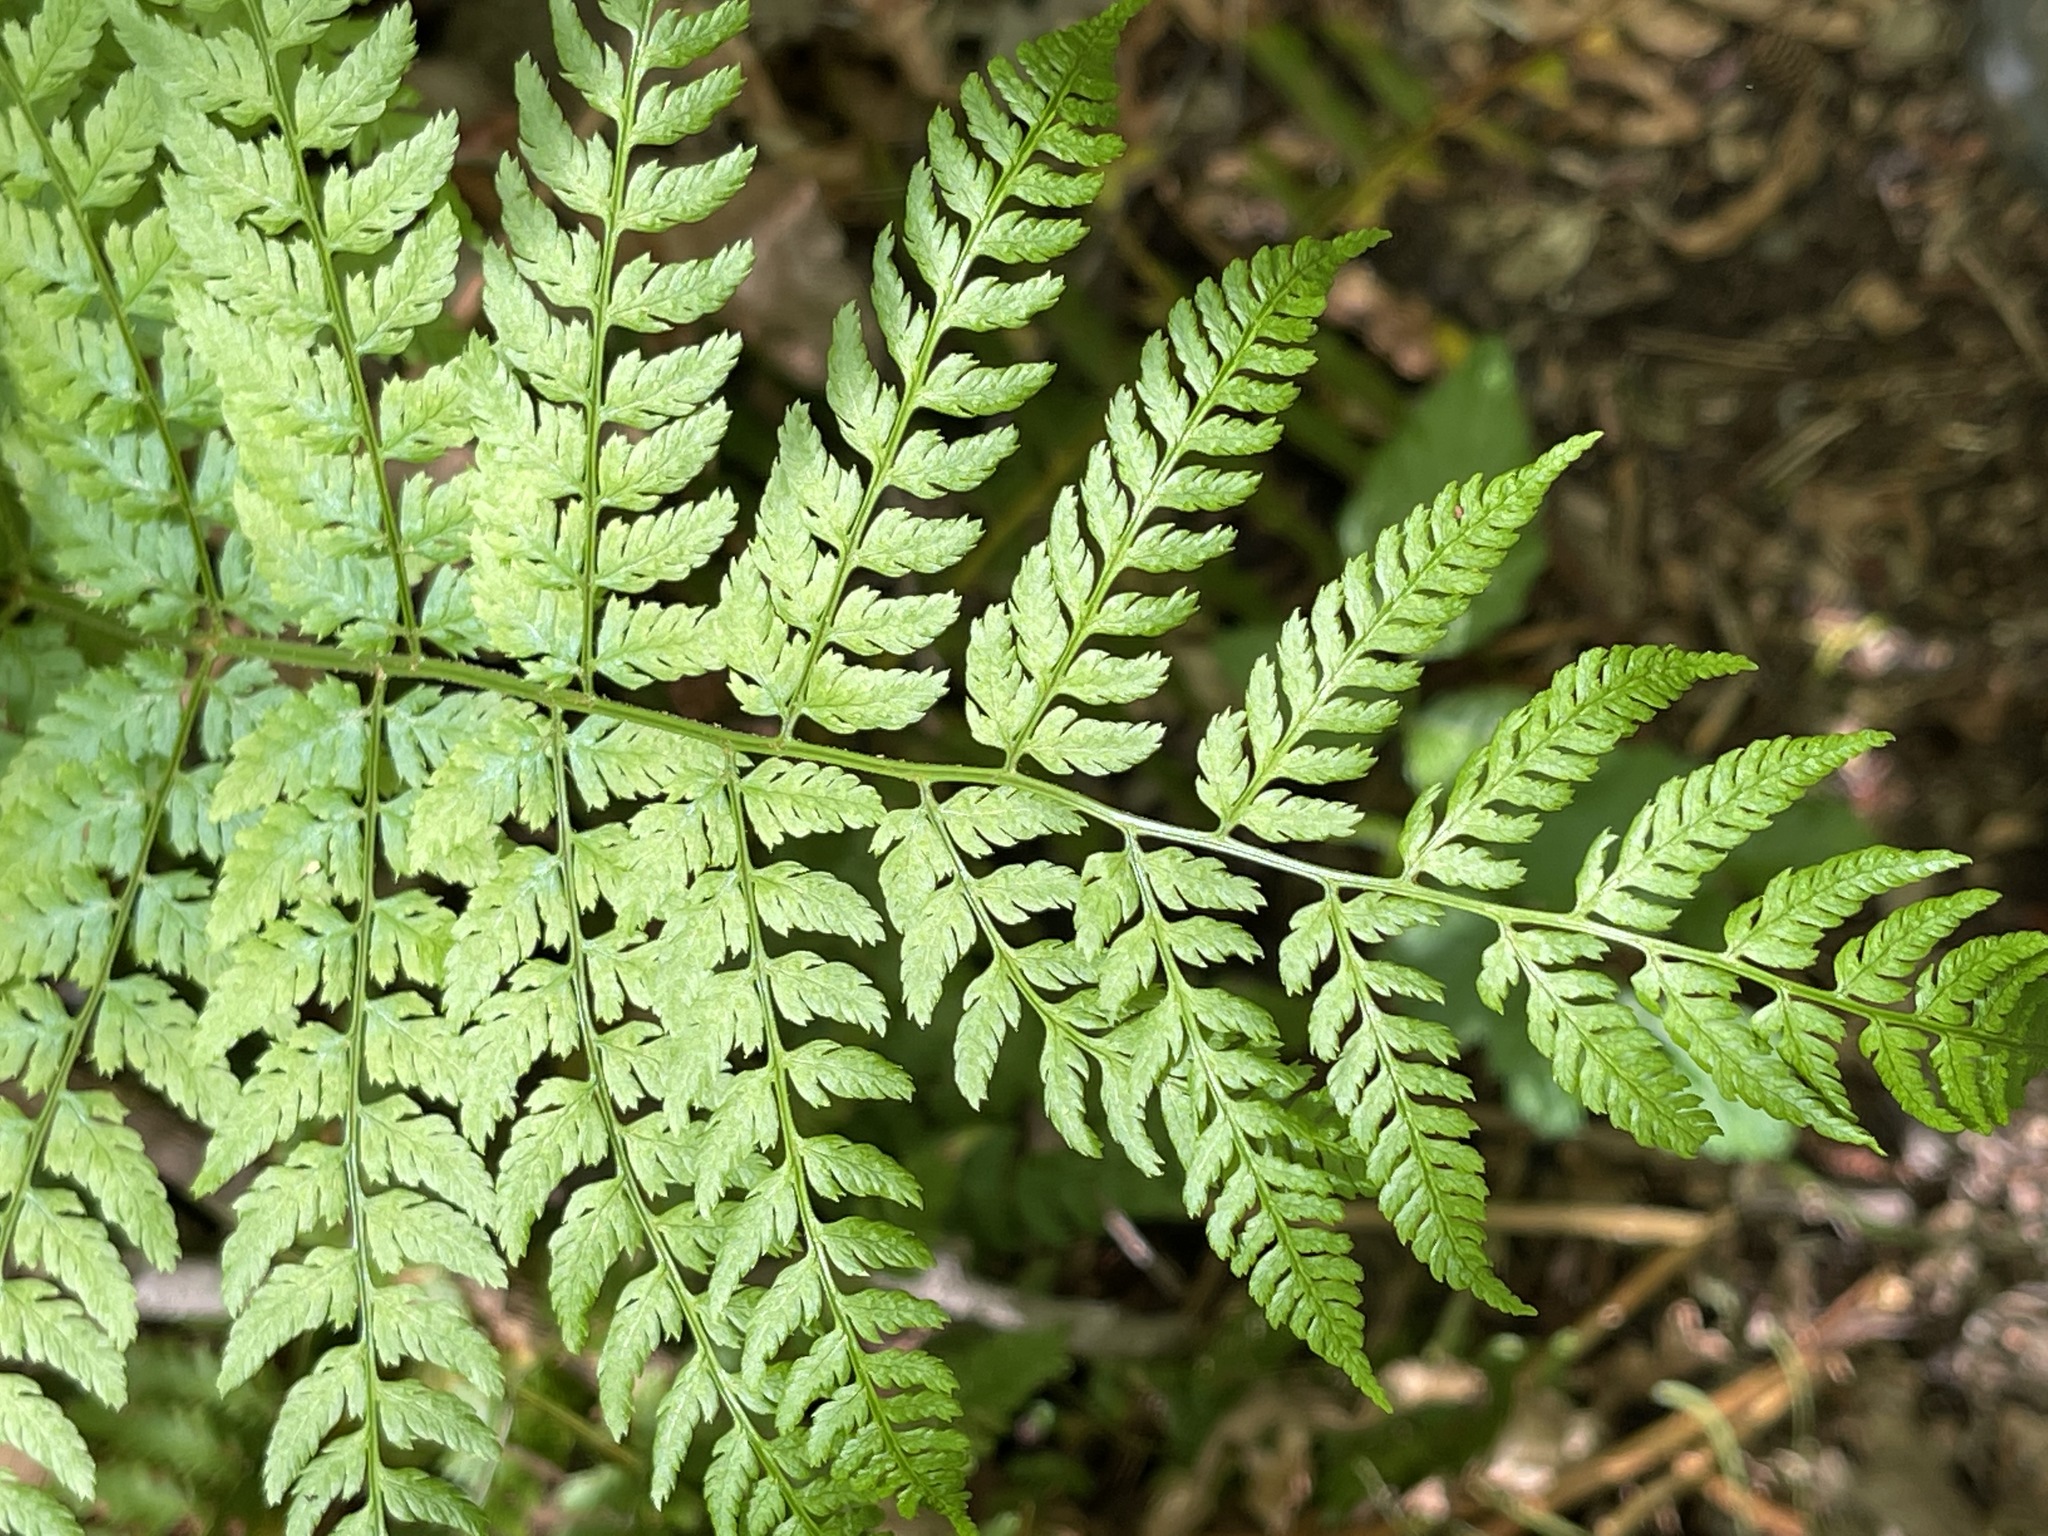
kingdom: Plantae
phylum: Tracheophyta
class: Polypodiopsida
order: Polypodiales
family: Dryopteridaceae
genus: Dryopteris
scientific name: Dryopteris expansa
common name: Northern buckler fern
